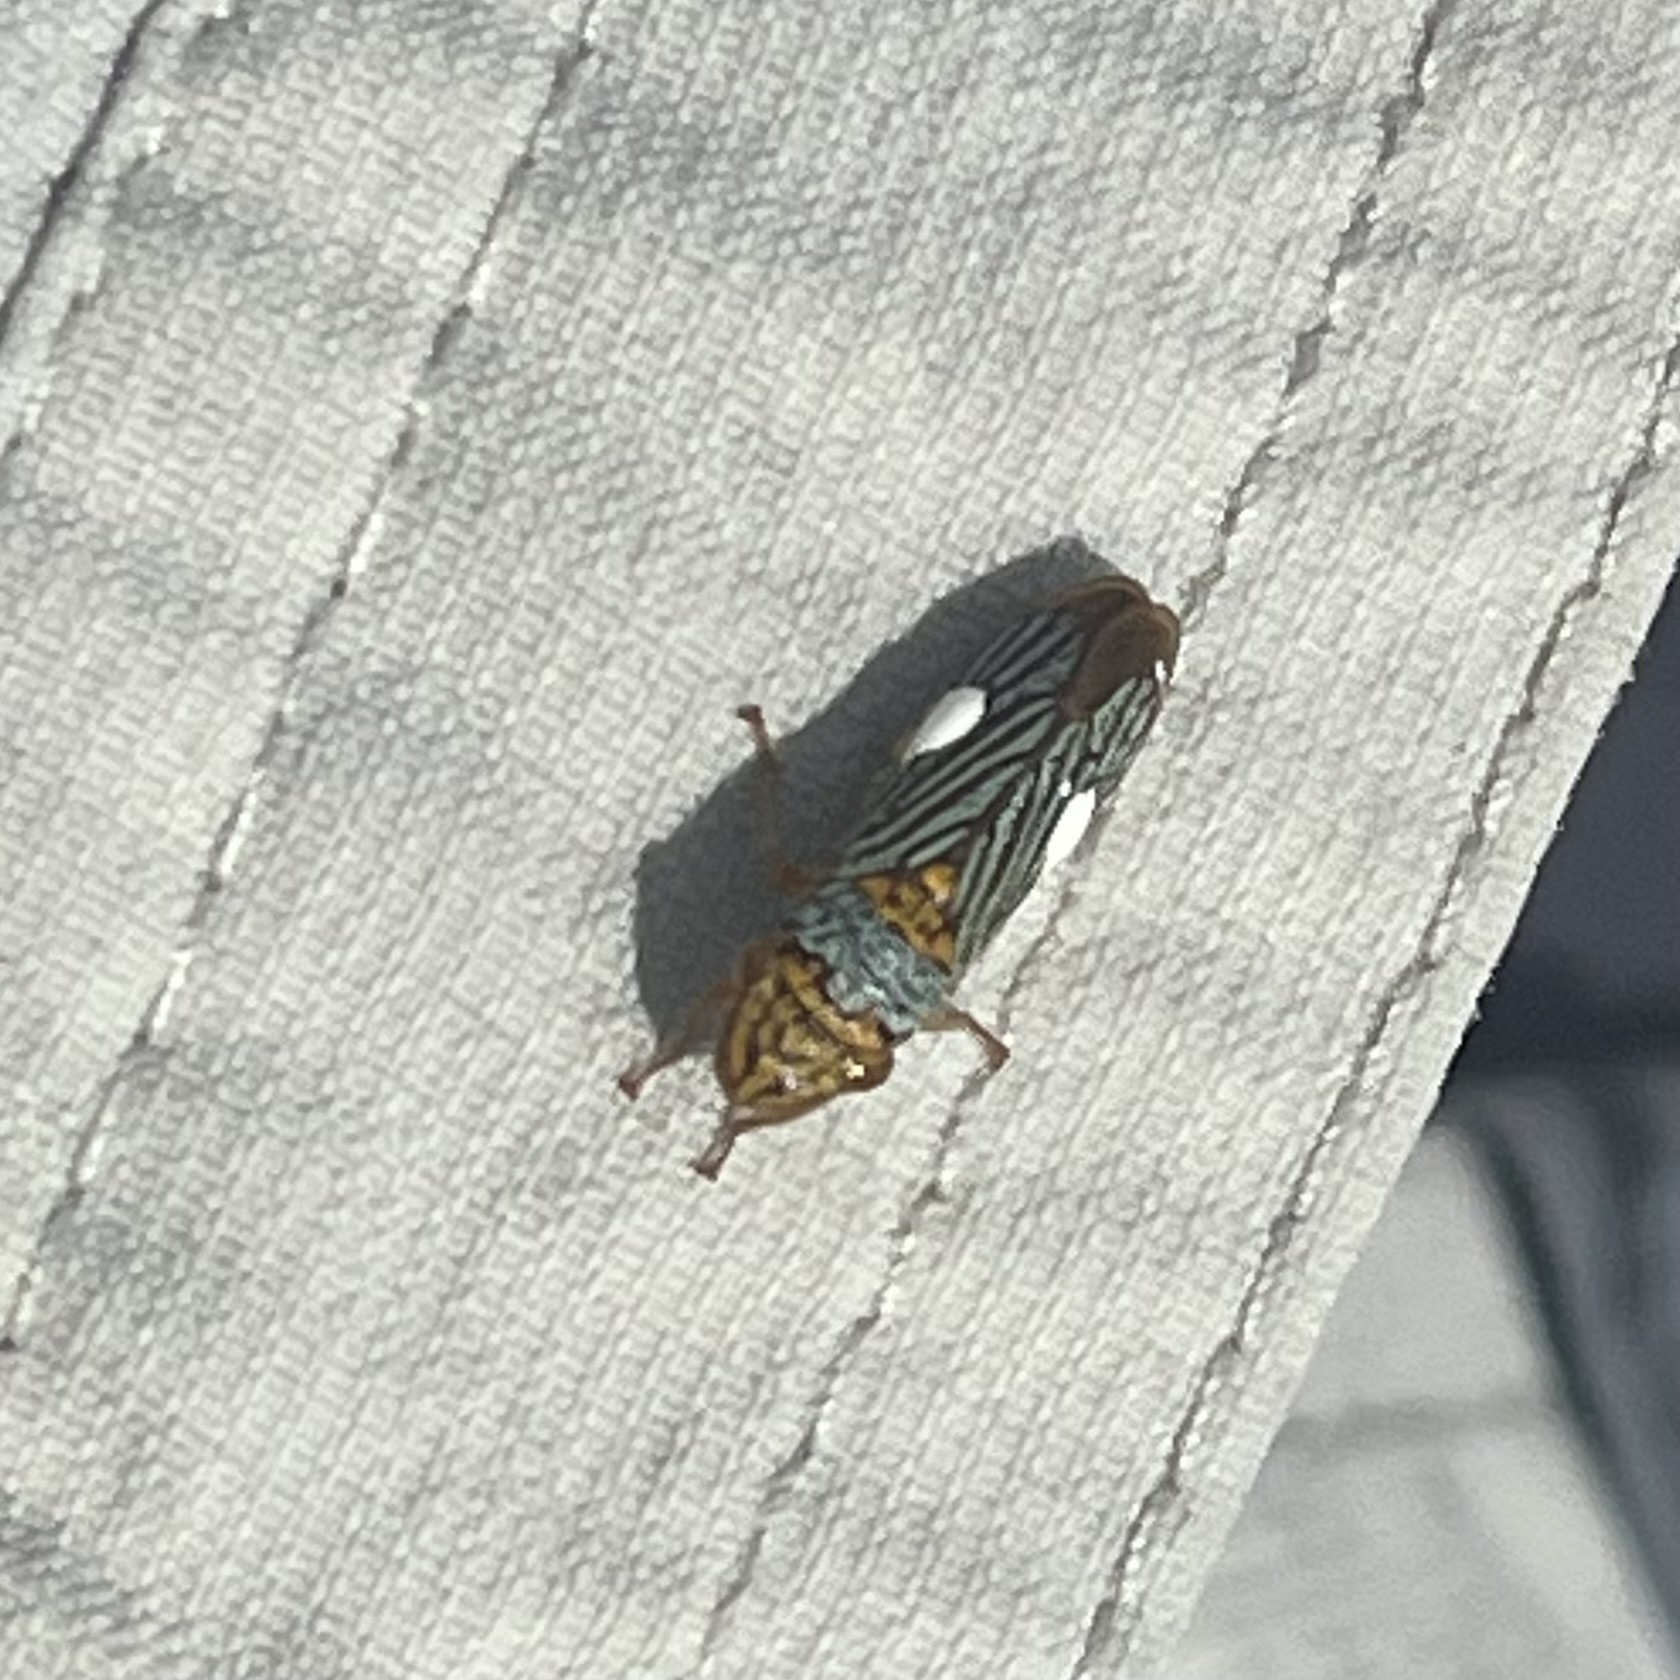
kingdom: Animalia
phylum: Arthropoda
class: Insecta
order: Hemiptera
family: Cicadellidae
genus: Oncometopia
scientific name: Oncometopia nigricans
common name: Black-winged sharpshooter
